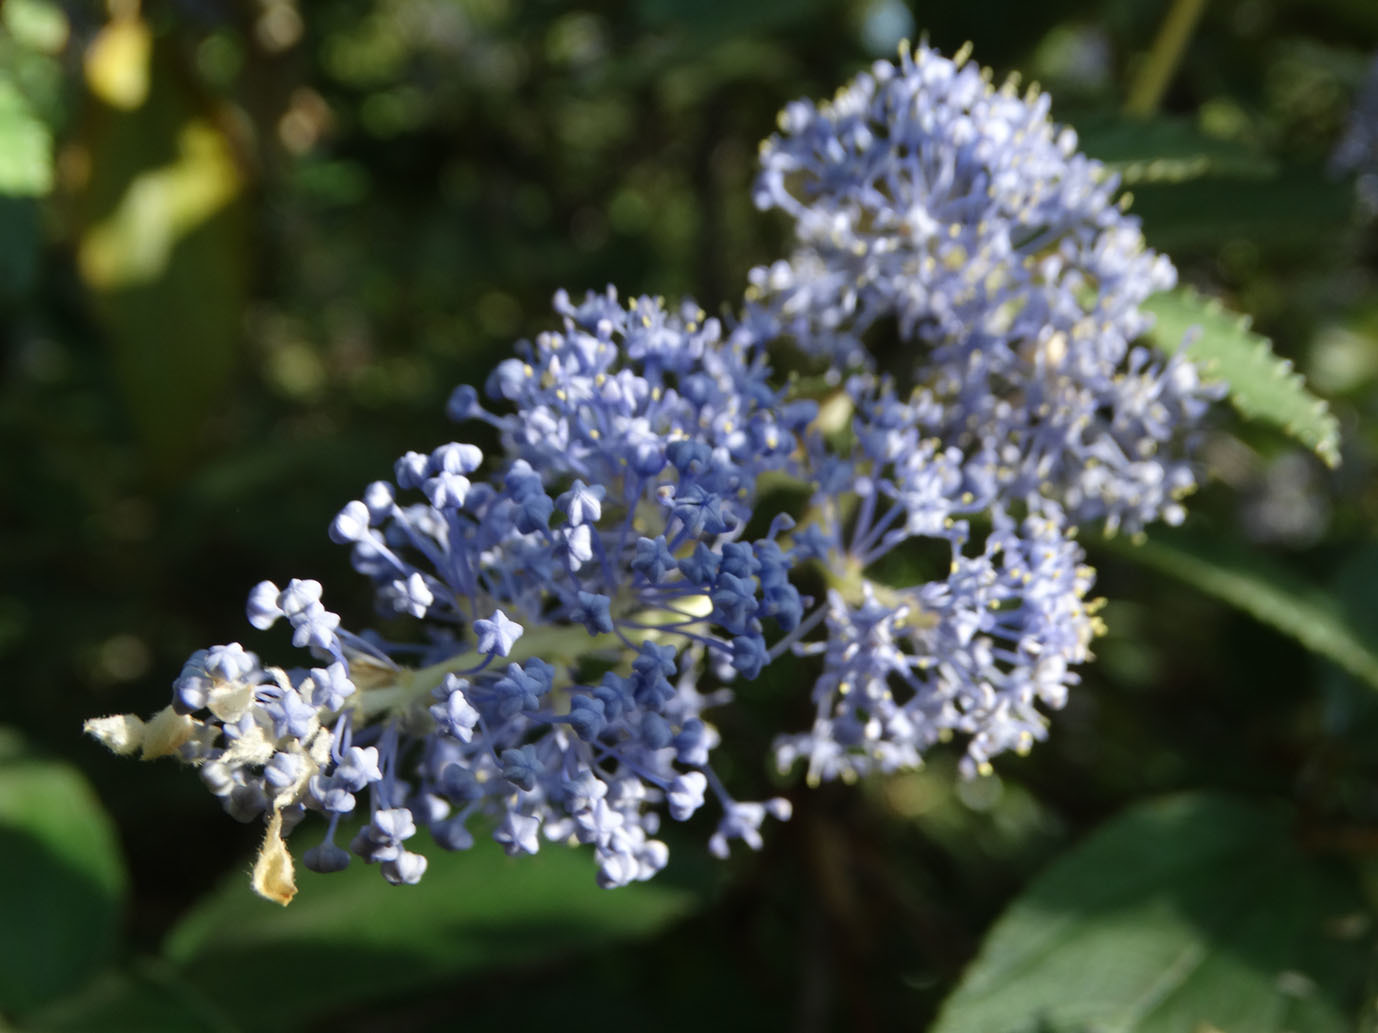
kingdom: Plantae
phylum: Tracheophyta
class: Magnoliopsida
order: Rosales
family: Rhamnaceae
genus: Ceanothus
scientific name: Ceanothus caeruleus
